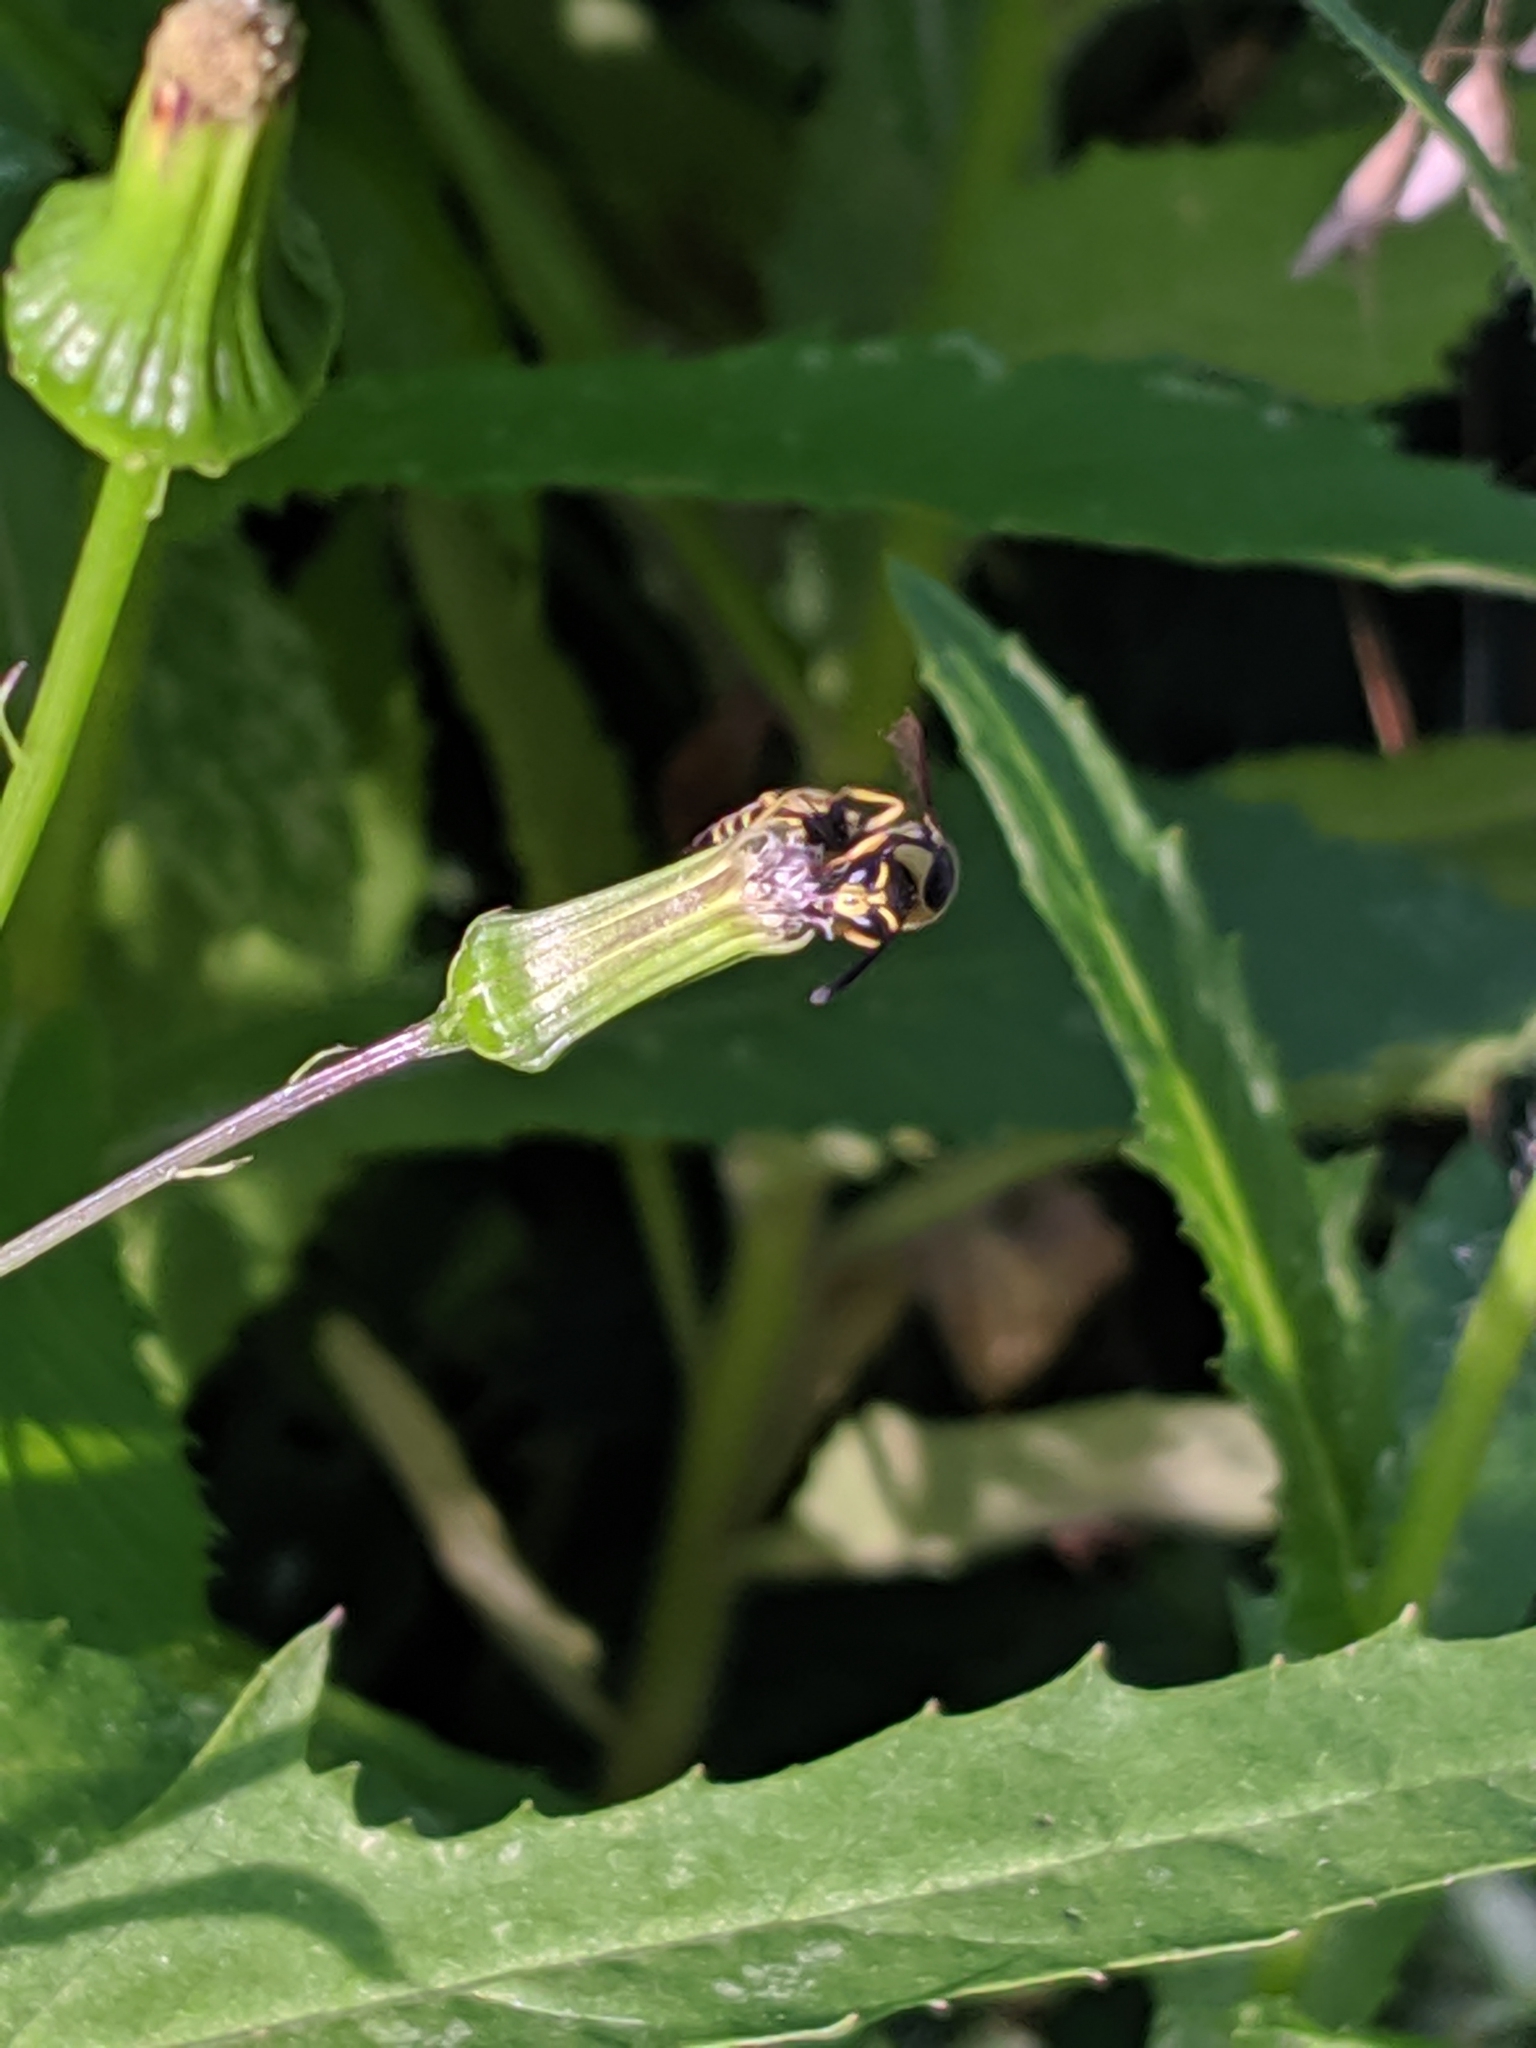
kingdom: Animalia
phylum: Arthropoda
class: Insecta
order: Hymenoptera
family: Vespidae
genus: Eumenes
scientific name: Eumenes mediterraneus
